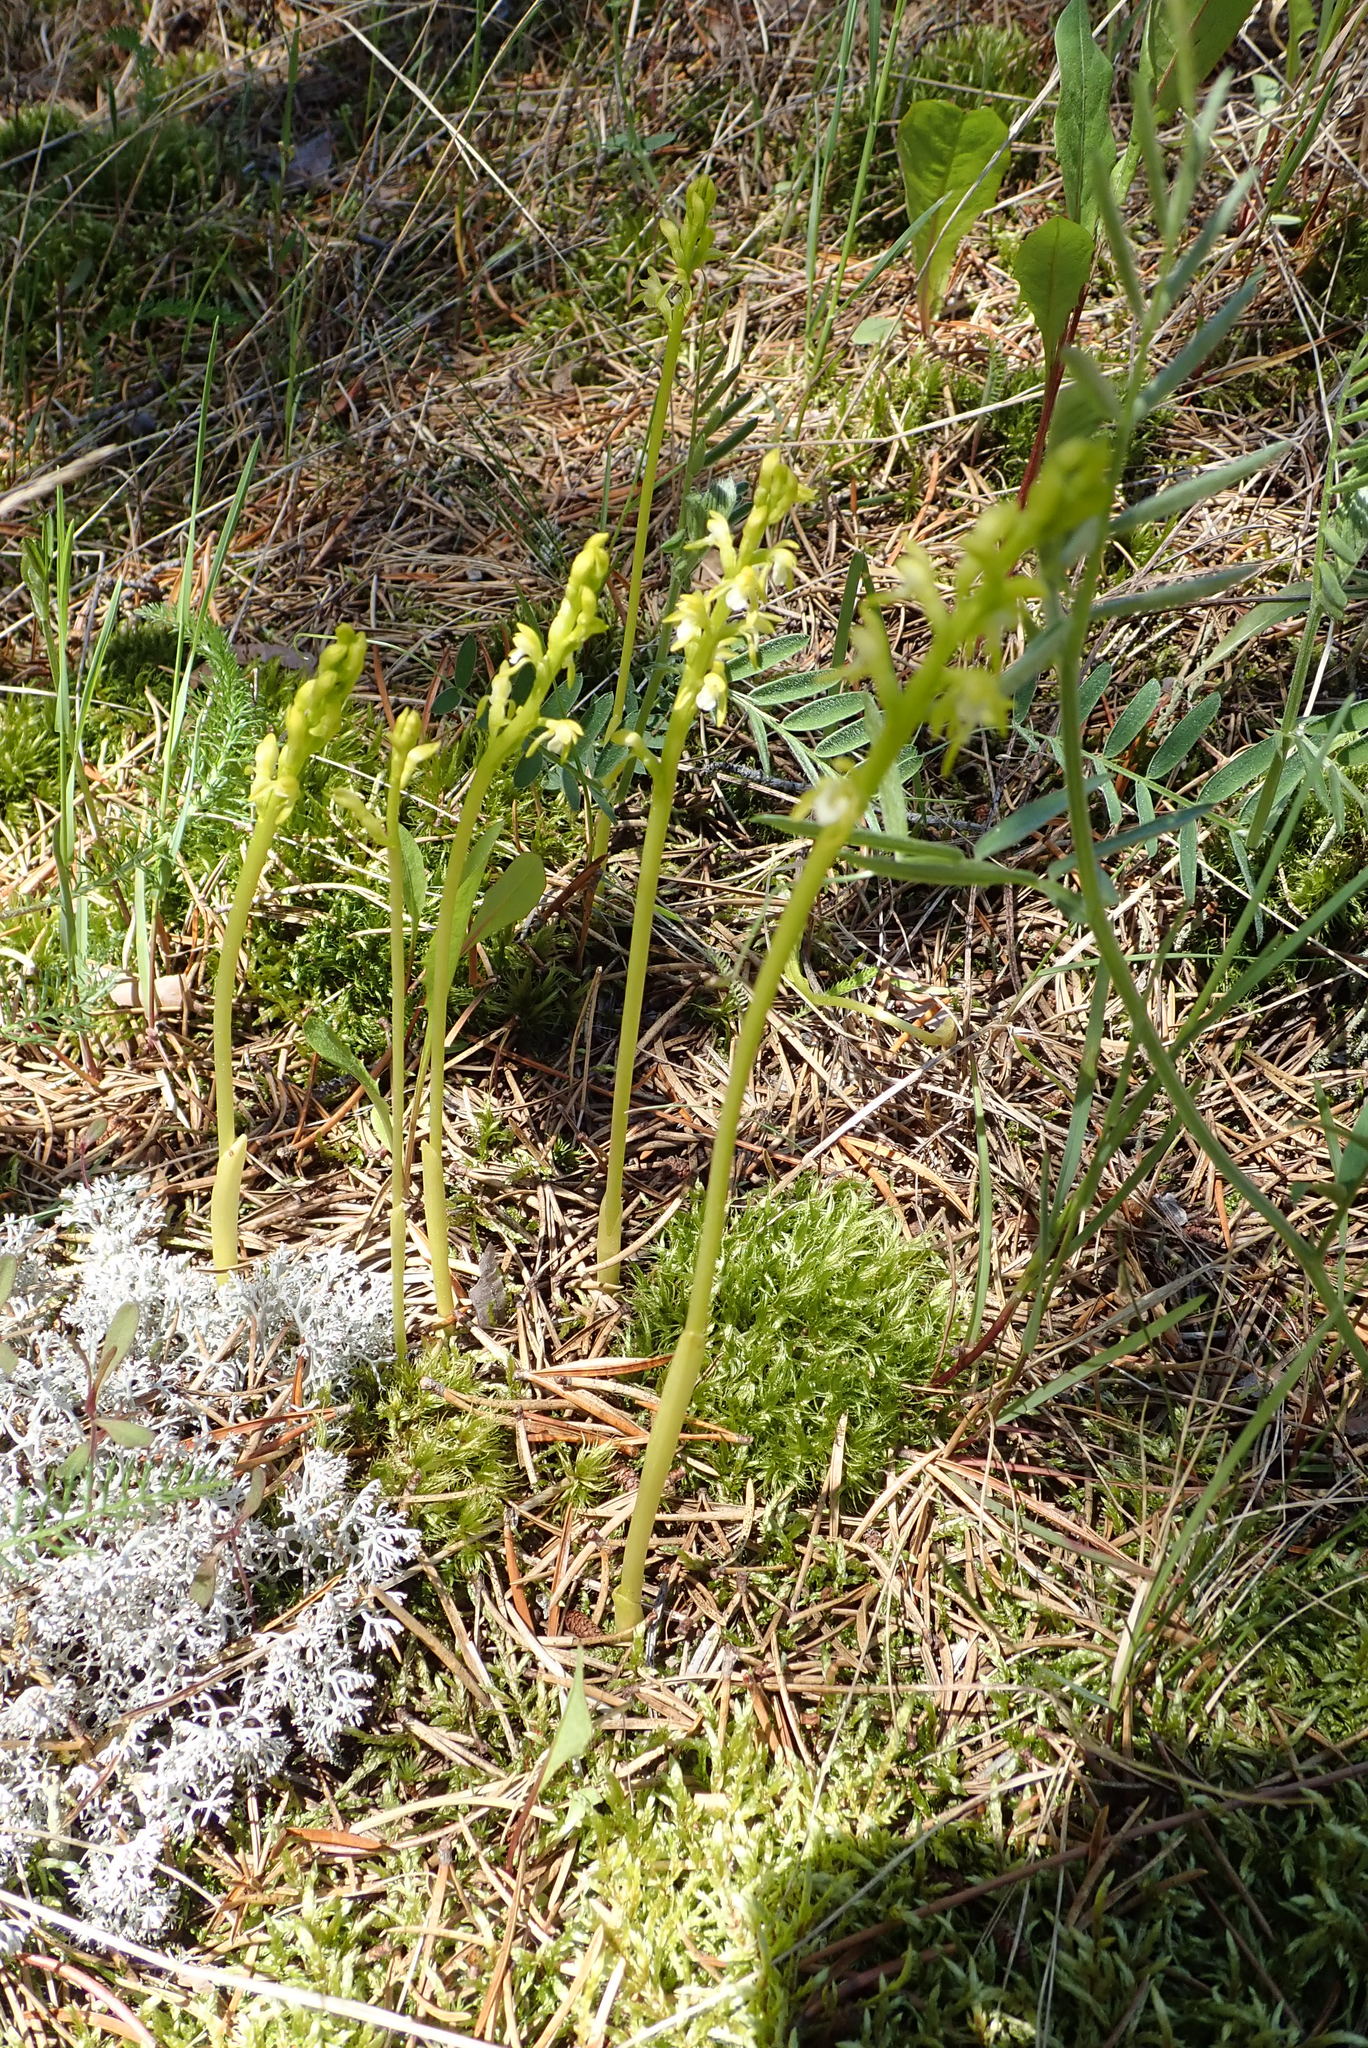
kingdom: Plantae
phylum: Tracheophyta
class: Liliopsida
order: Asparagales
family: Orchidaceae
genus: Corallorhiza
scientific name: Corallorhiza trifida
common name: Yellow coralroot
